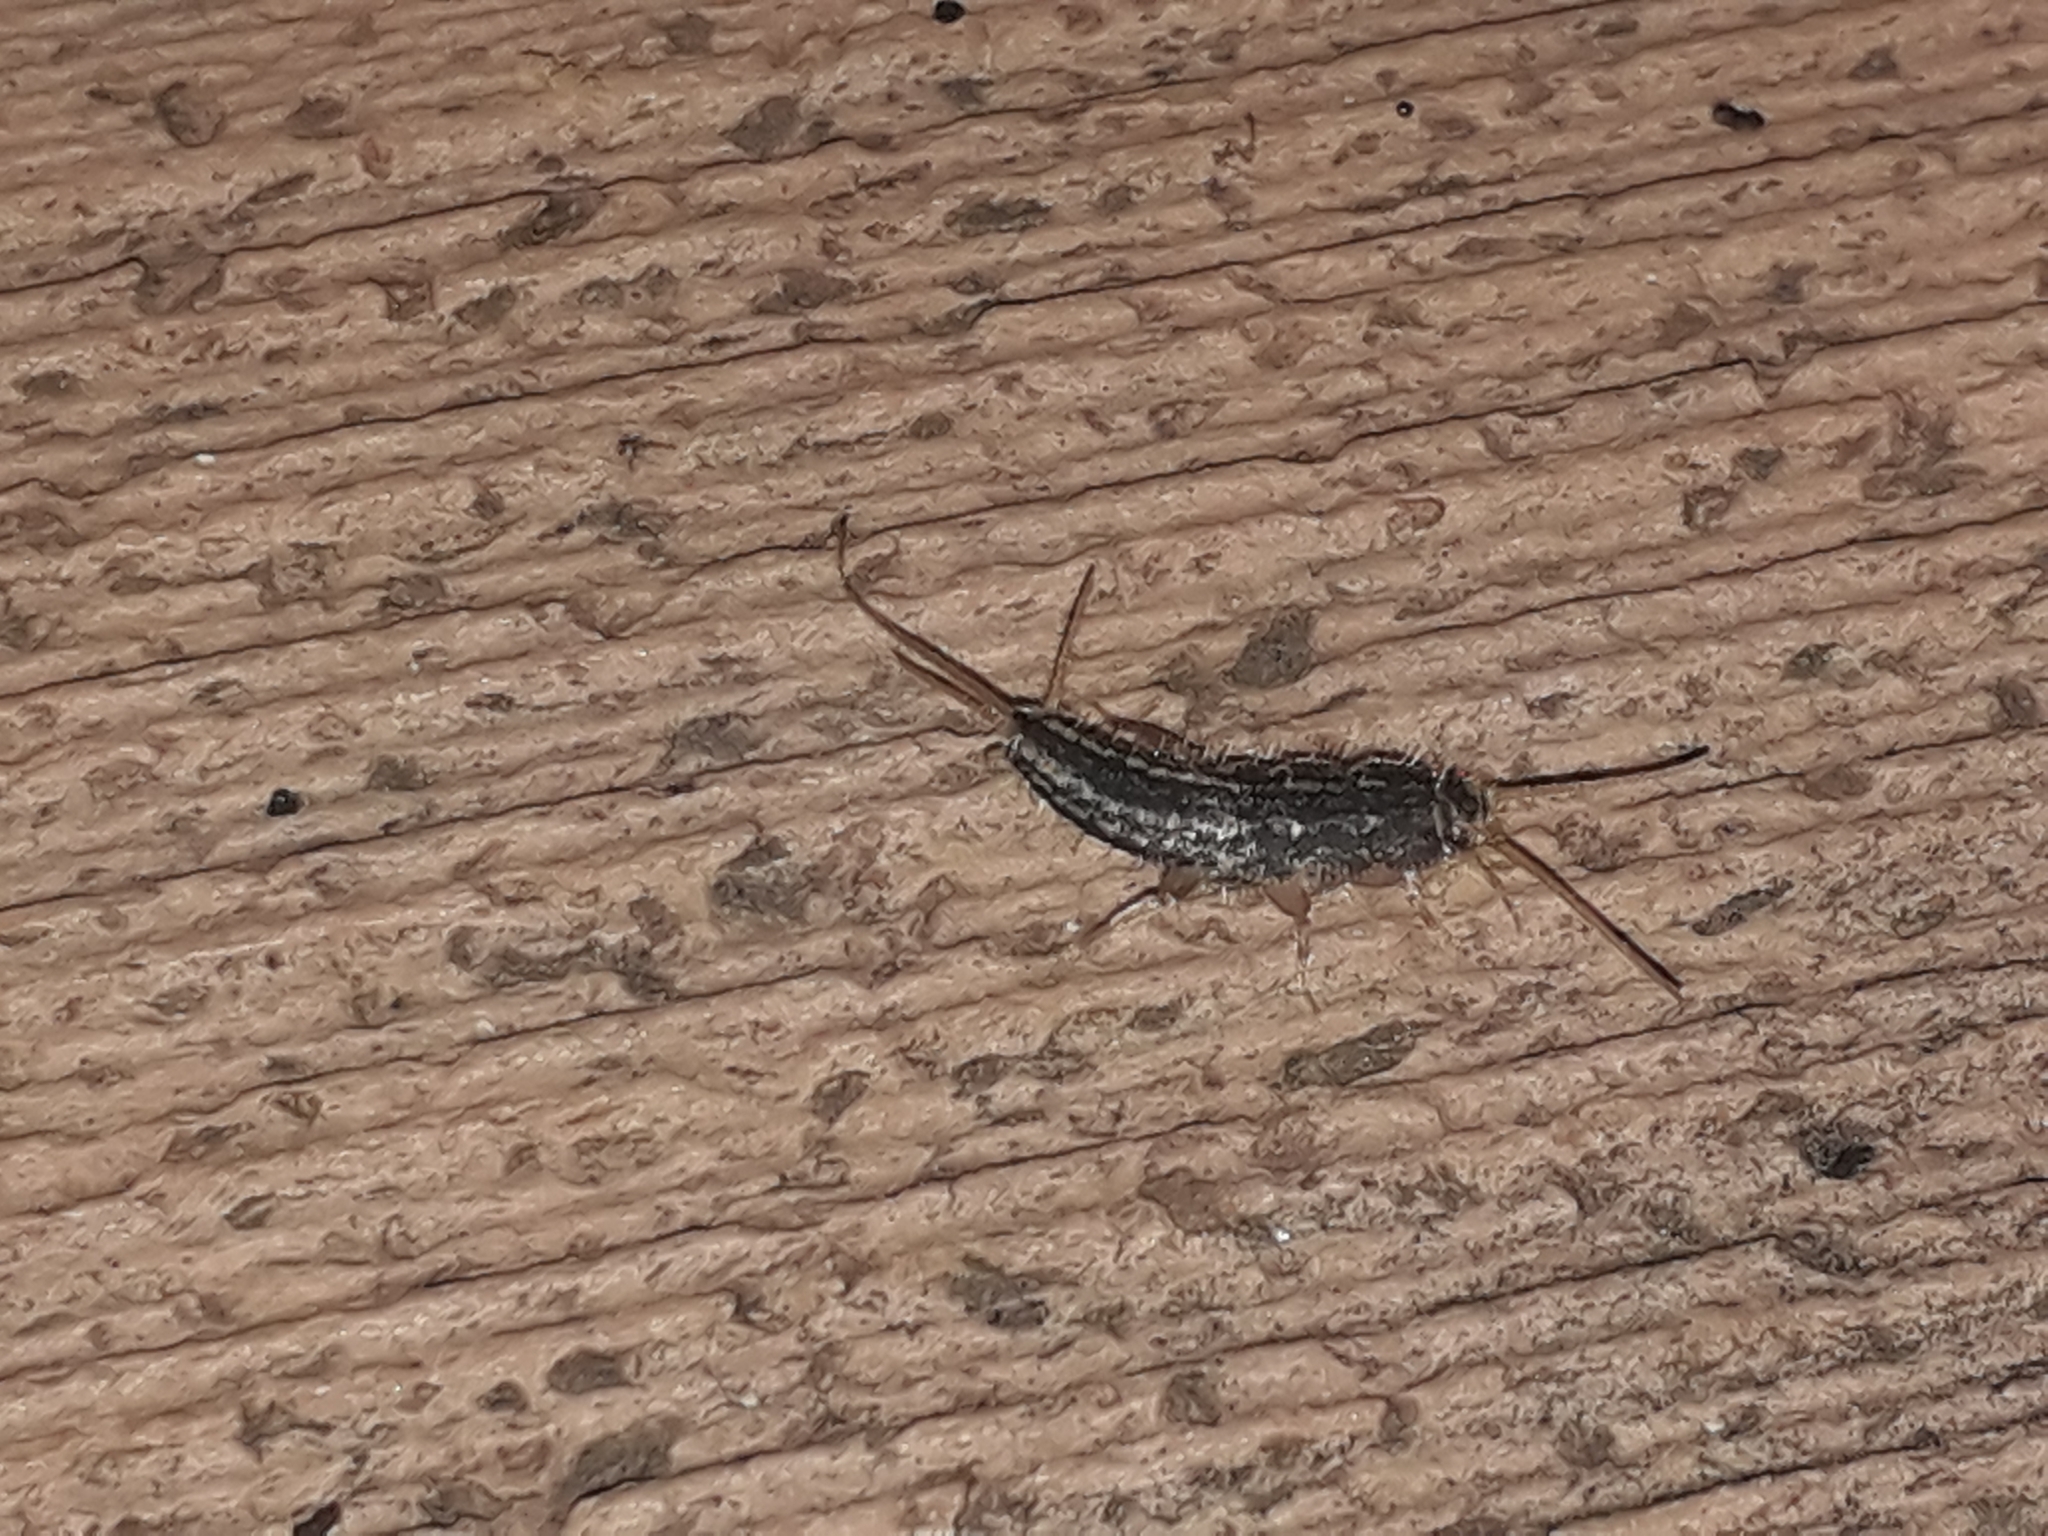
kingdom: Animalia
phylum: Arthropoda
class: Insecta
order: Zygentoma
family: Lepismatidae
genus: Ctenolepisma
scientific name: Ctenolepisma lineata
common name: Four-lined silverfish
